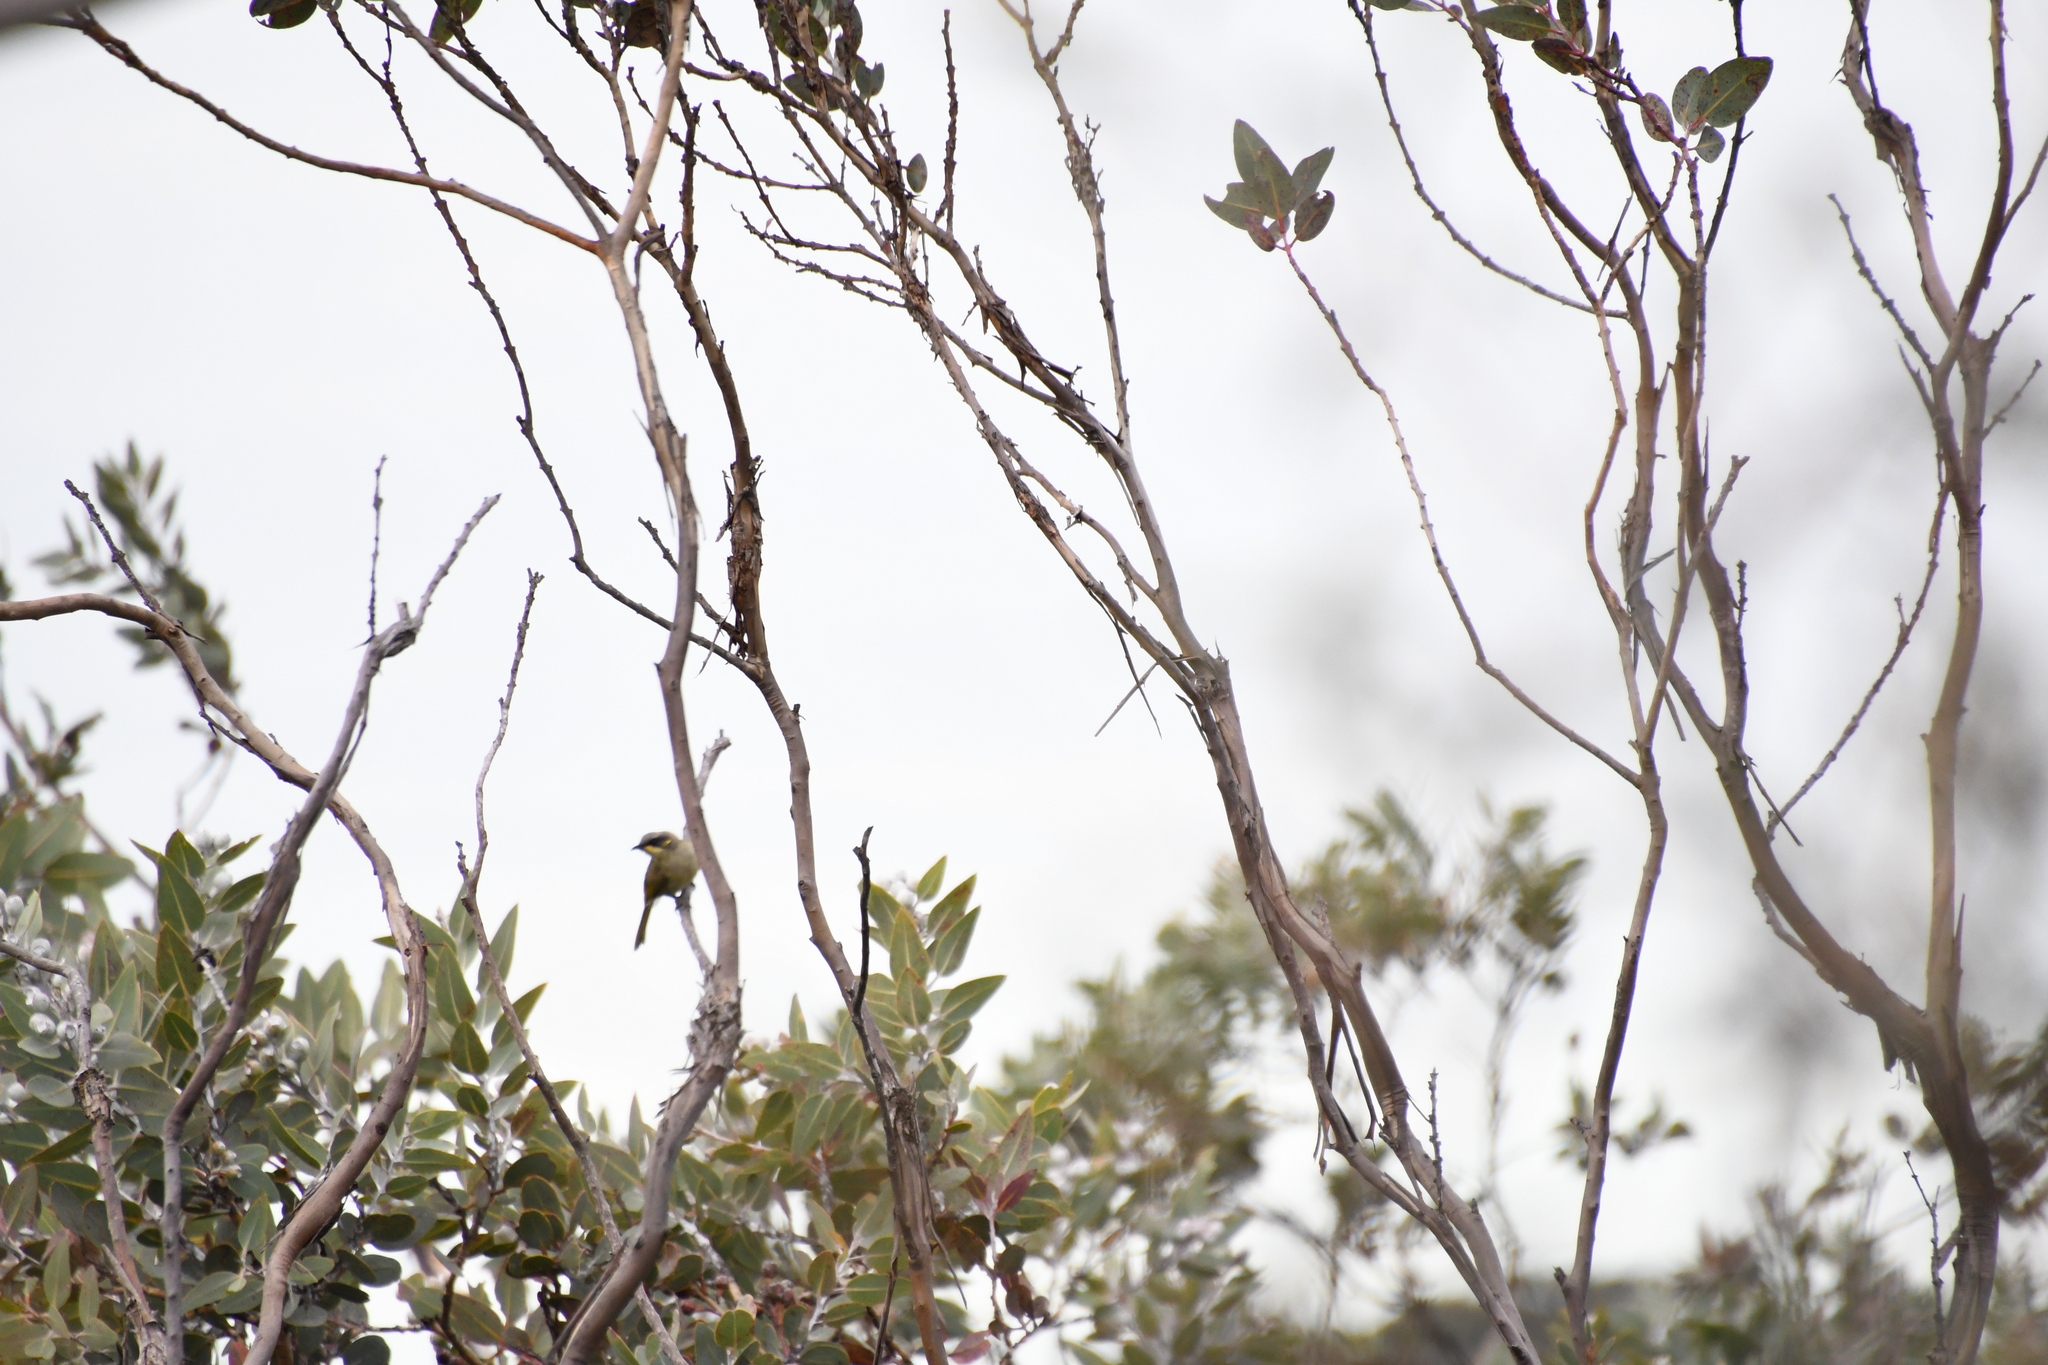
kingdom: Animalia
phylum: Chordata
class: Aves
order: Passeriformes
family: Meliphagidae
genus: Lichenostomus
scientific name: Lichenostomus cratitius
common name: Purple-gaped honeyeater
